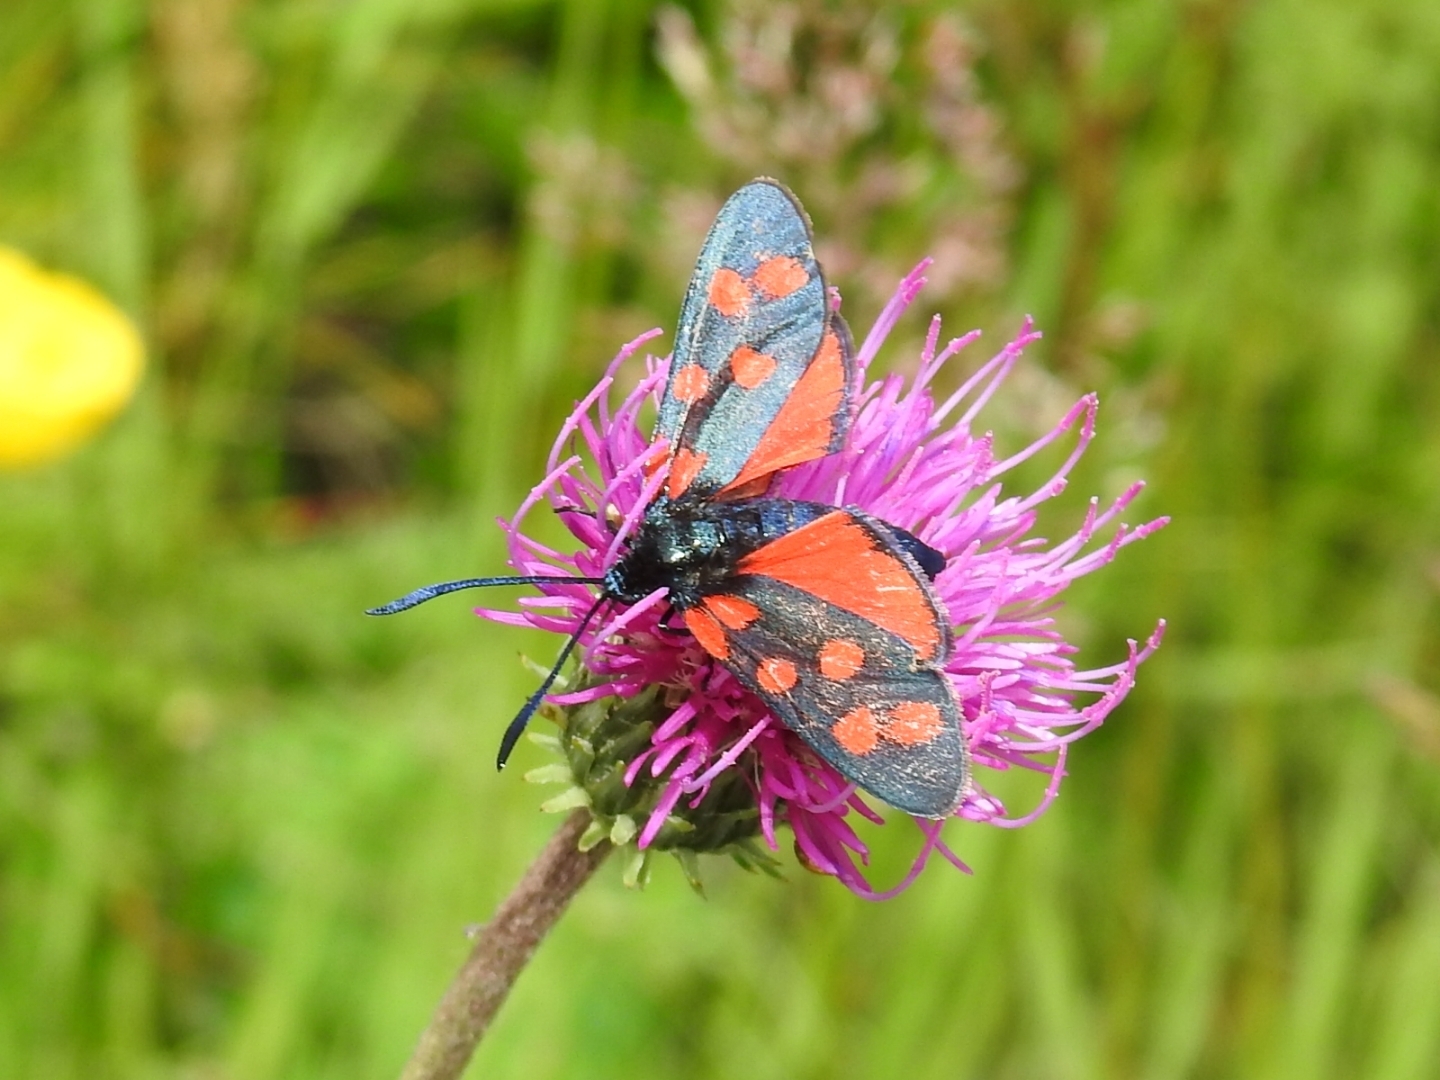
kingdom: Animalia
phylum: Arthropoda
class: Insecta
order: Lepidoptera
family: Zygaenidae
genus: Zygaena
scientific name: Zygaena filipendulae
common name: Six-spot burnet
